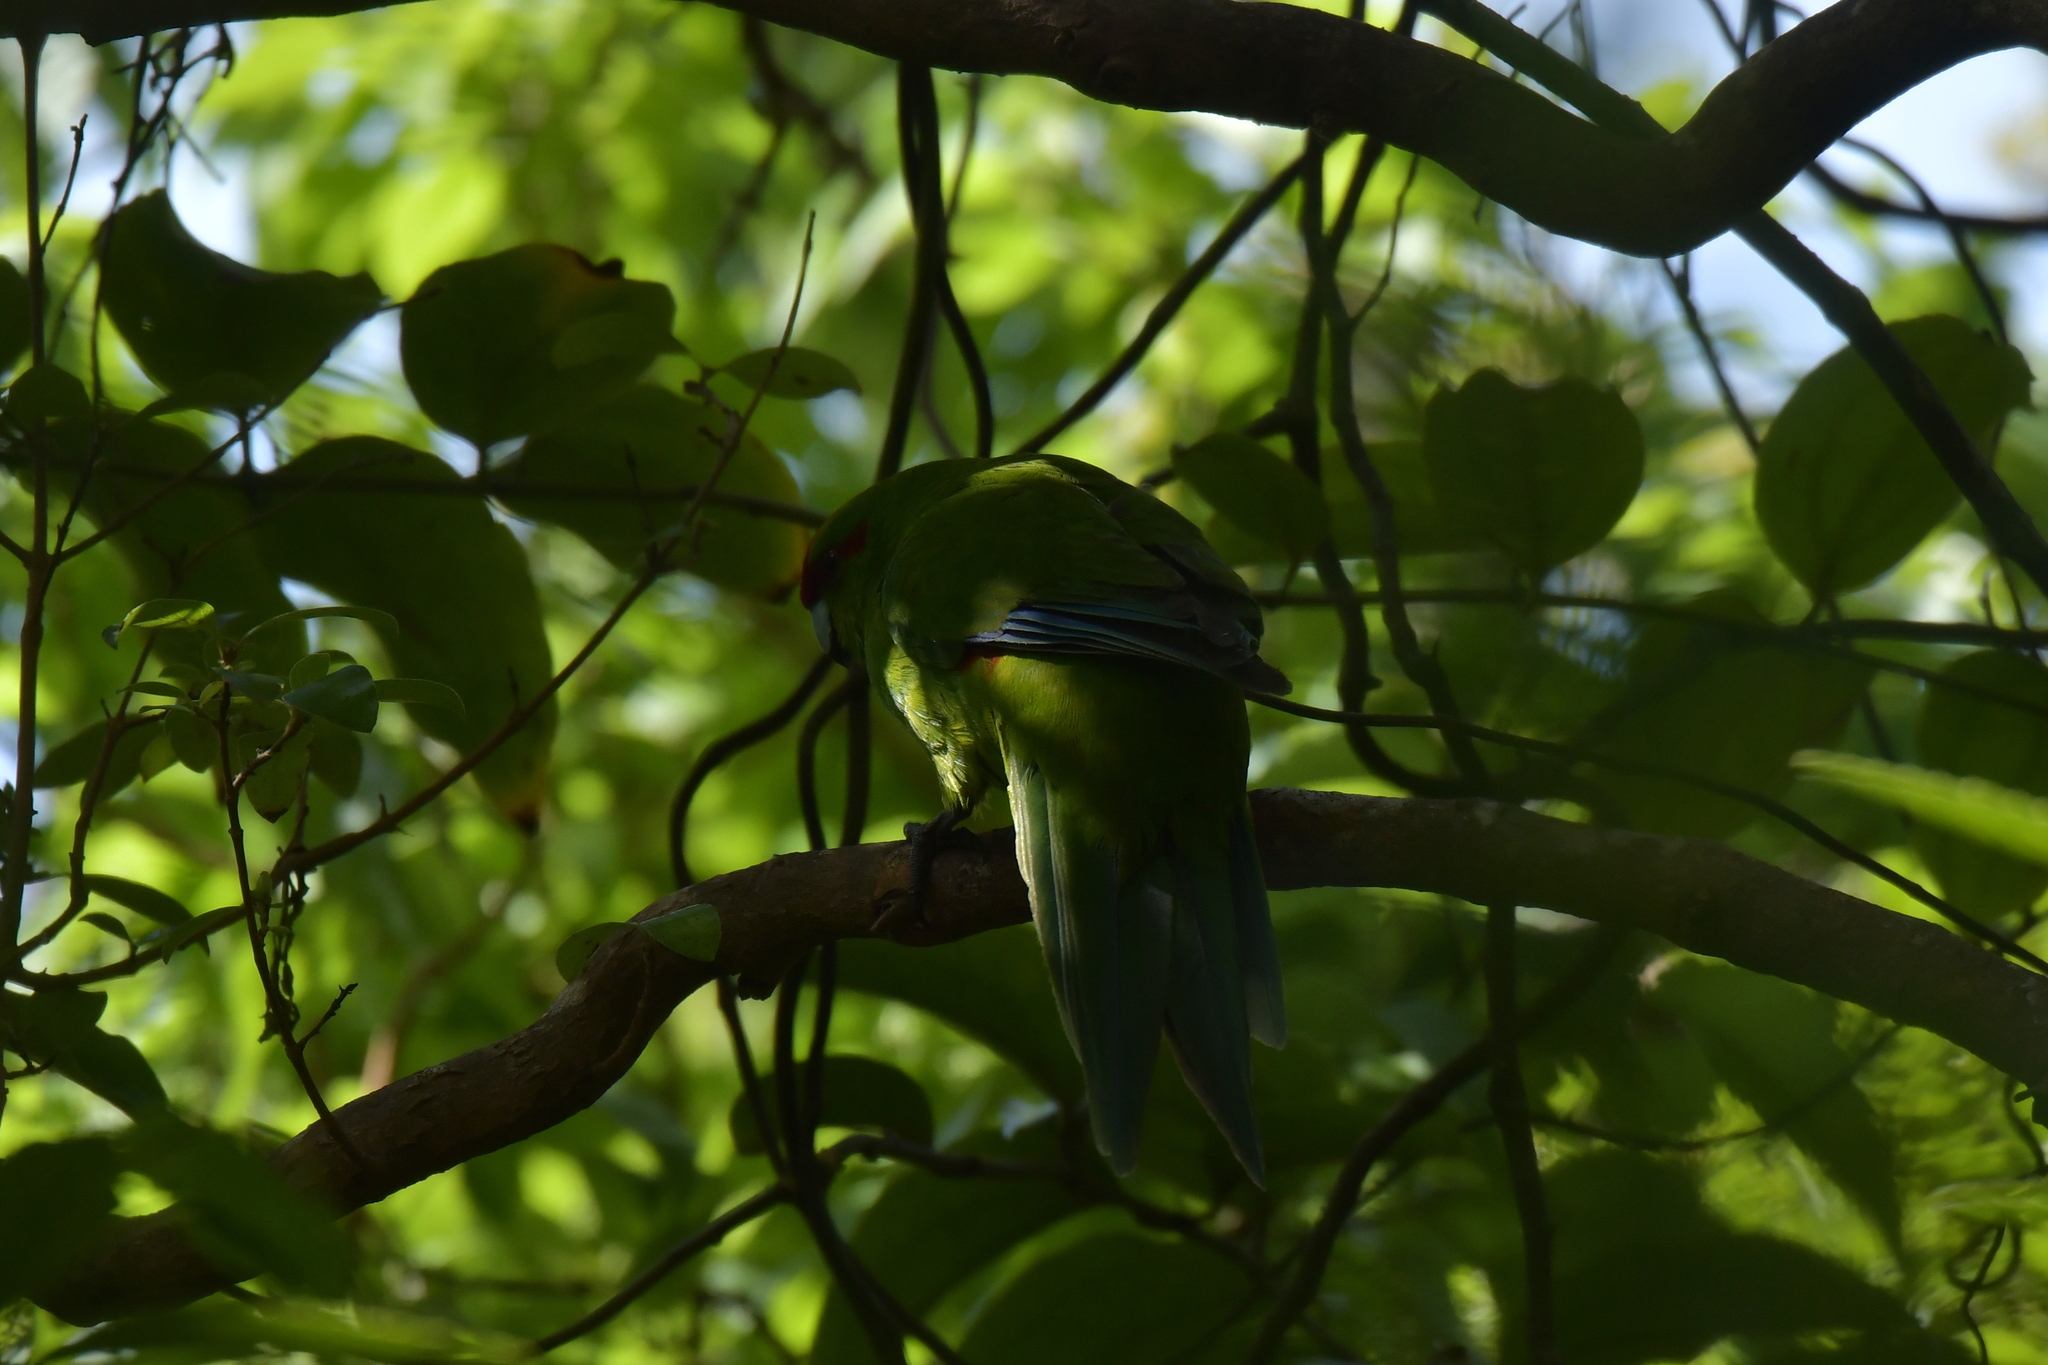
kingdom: Animalia
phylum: Chordata
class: Aves
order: Psittaciformes
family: Psittacidae
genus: Cyanoramphus
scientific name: Cyanoramphus novaezelandiae
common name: Red-fronted parakeet
